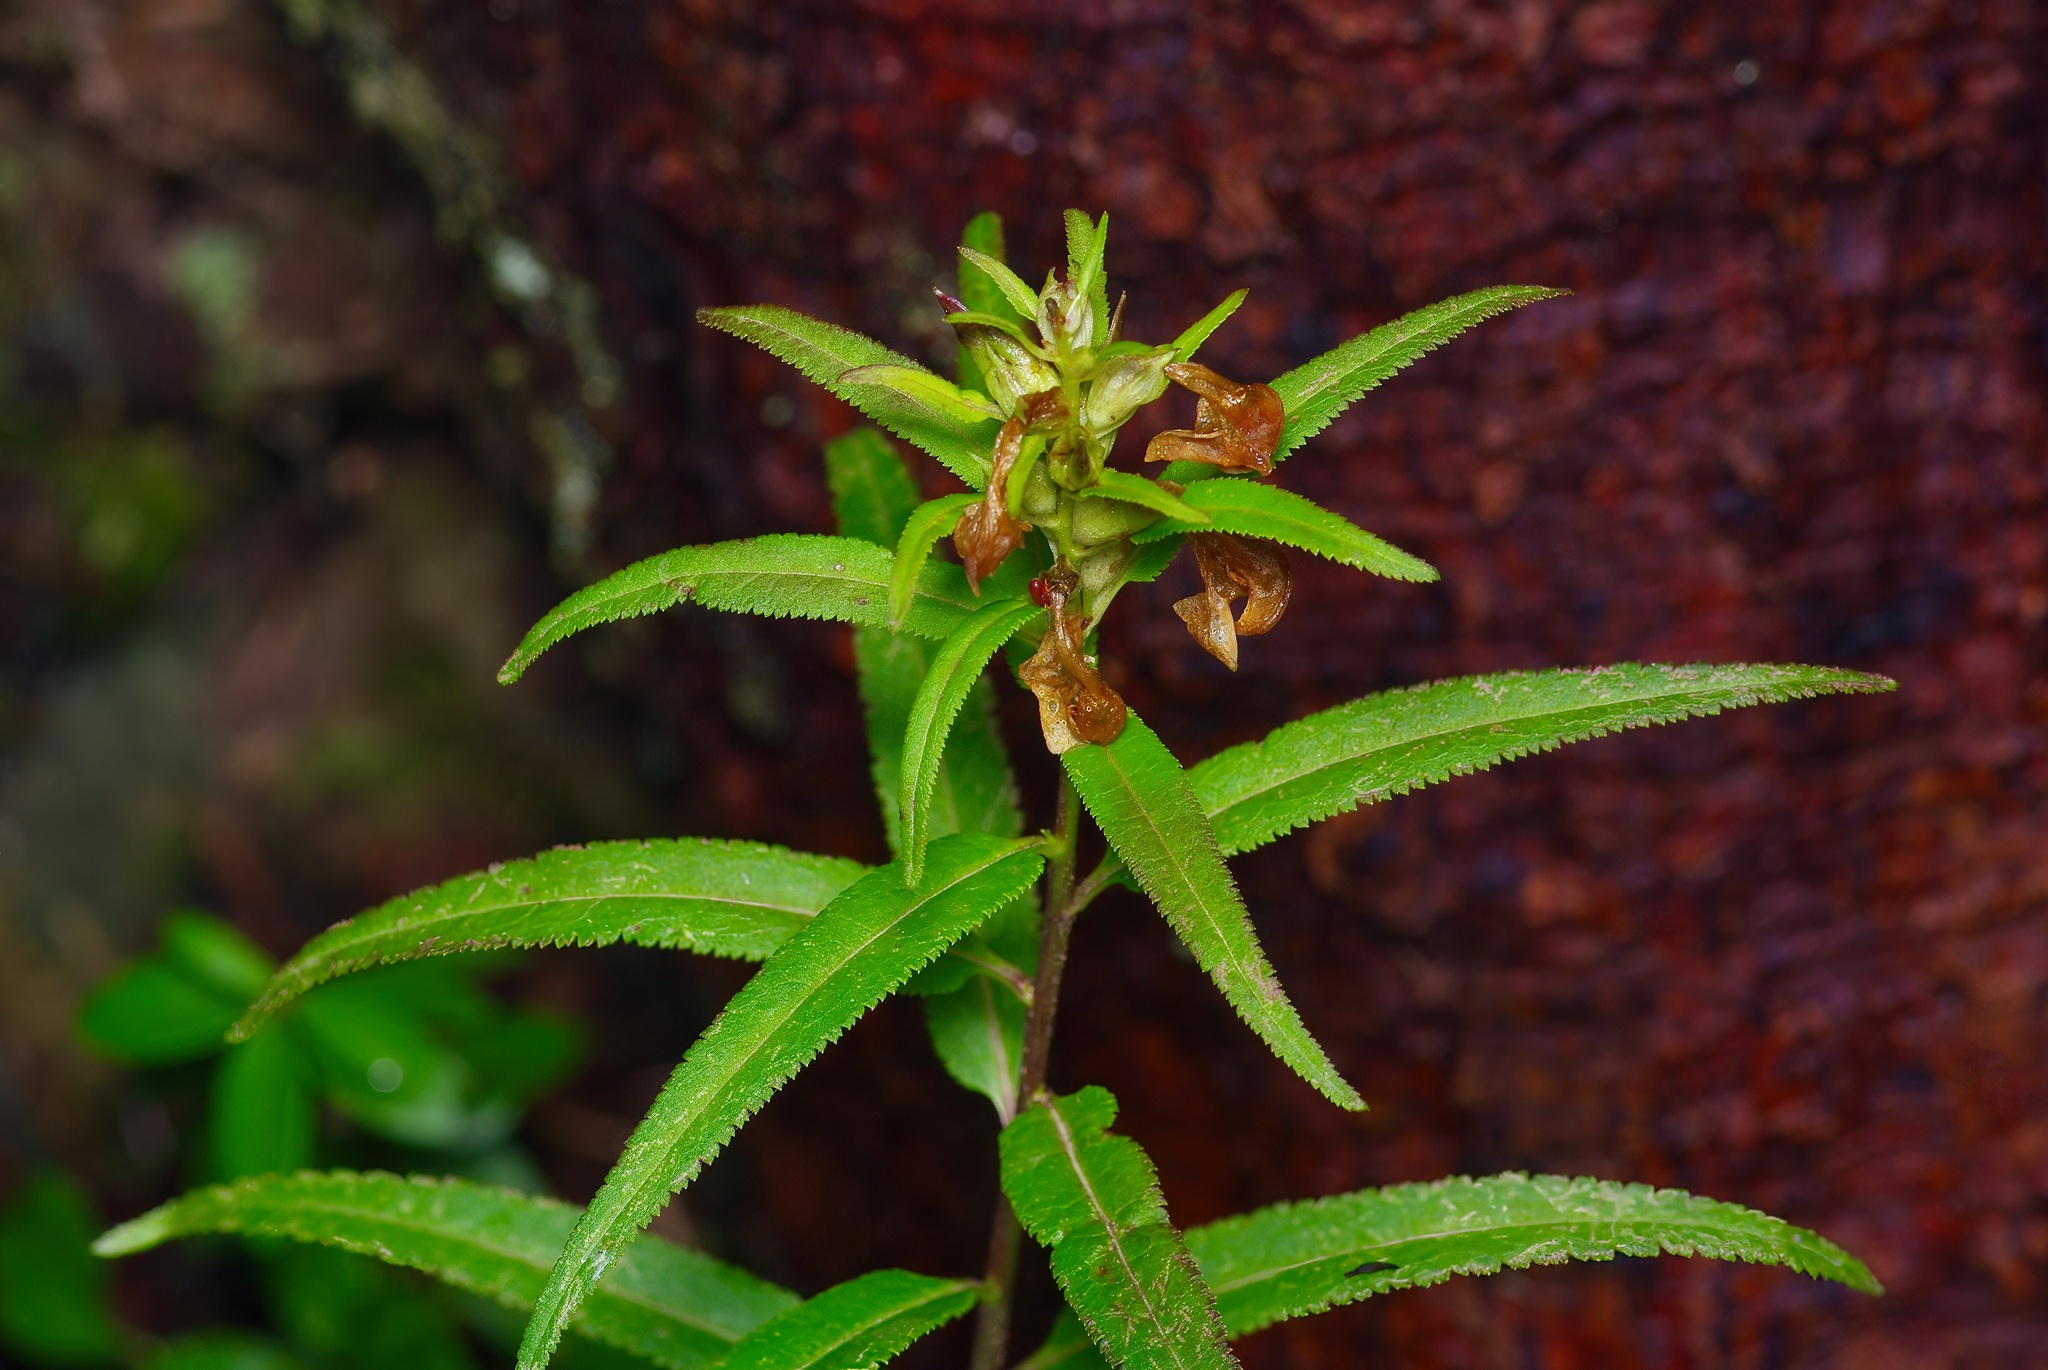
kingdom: Plantae
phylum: Tracheophyta
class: Magnoliopsida
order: Lamiales
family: Orobanchaceae
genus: Pedicularis
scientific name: Pedicularis racemosa
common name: Leafy lousewort
